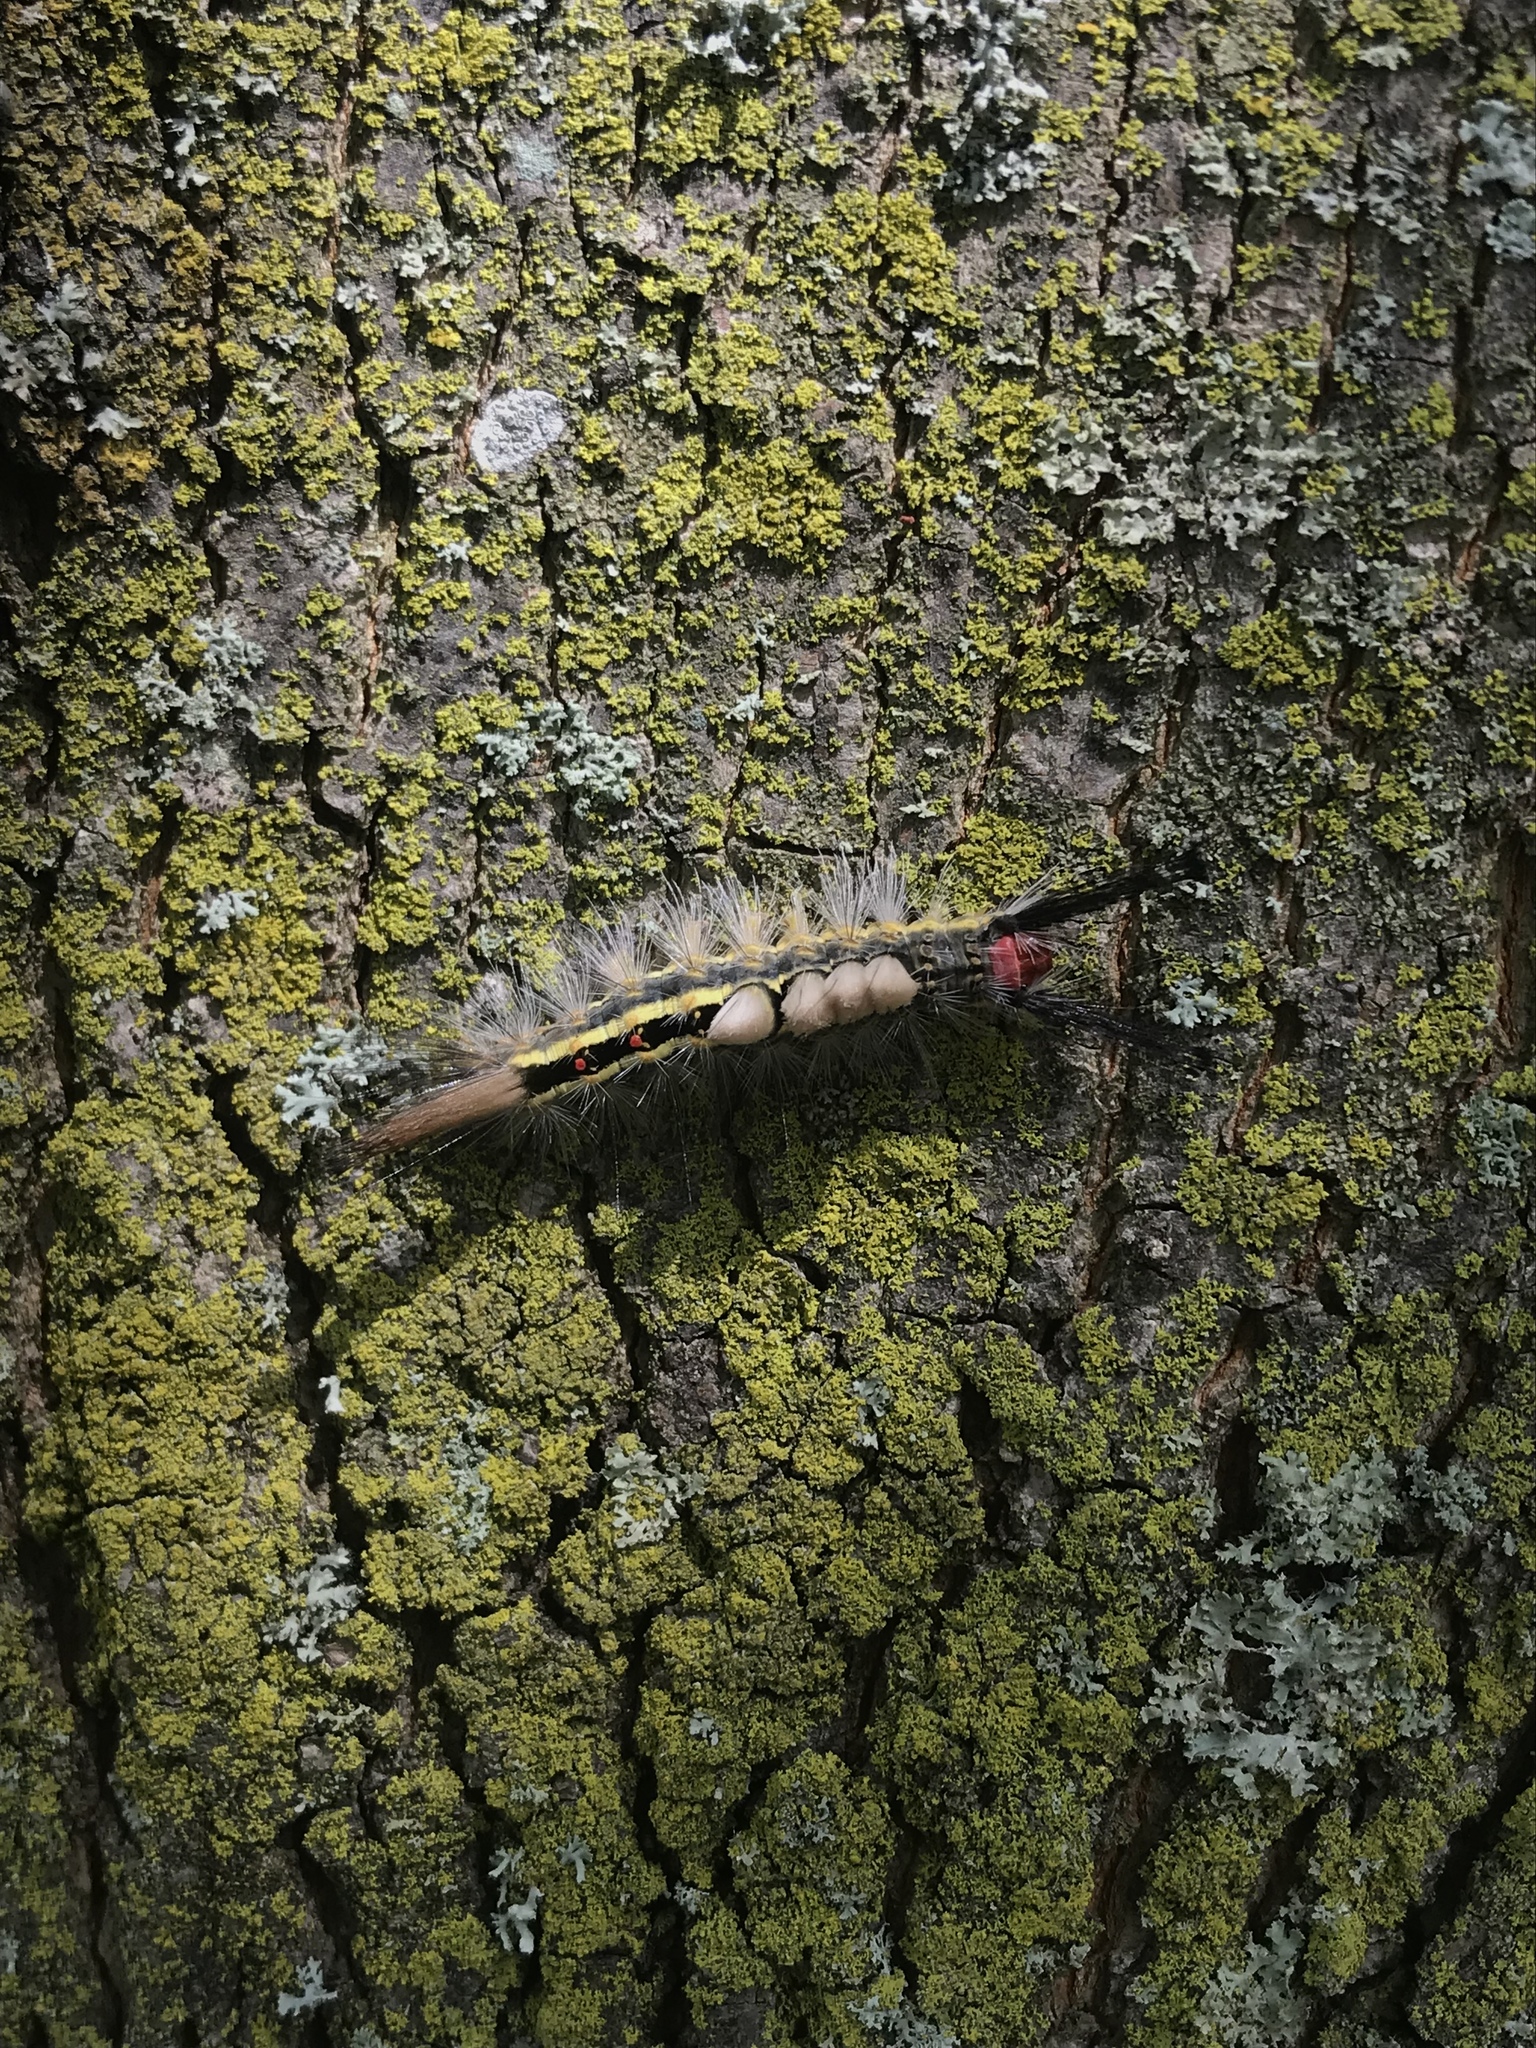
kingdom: Animalia
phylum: Arthropoda
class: Insecta
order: Lepidoptera
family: Erebidae
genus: Orgyia
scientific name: Orgyia leucostigma
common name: White-marked tussock moth
